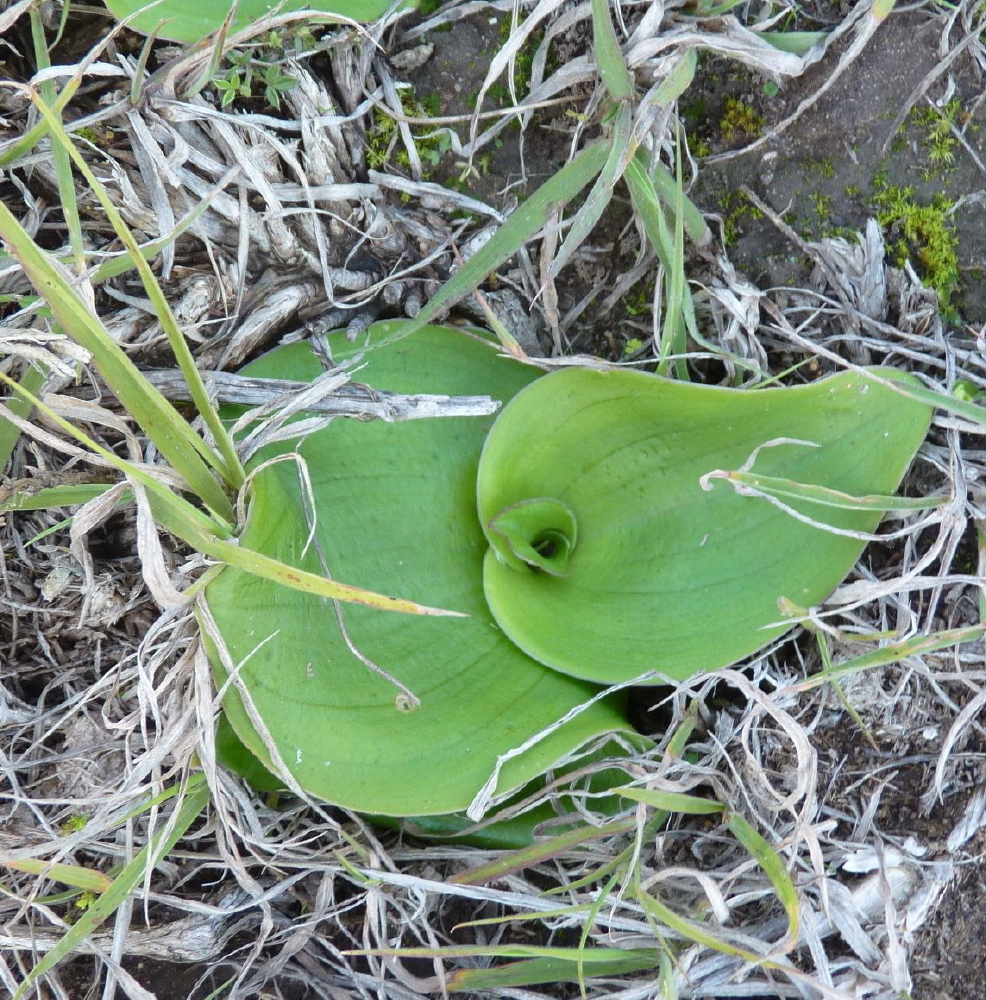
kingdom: Plantae
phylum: Tracheophyta
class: Liliopsida
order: Asparagales
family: Orchidaceae
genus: Satyrium
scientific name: Satyrium carneum
